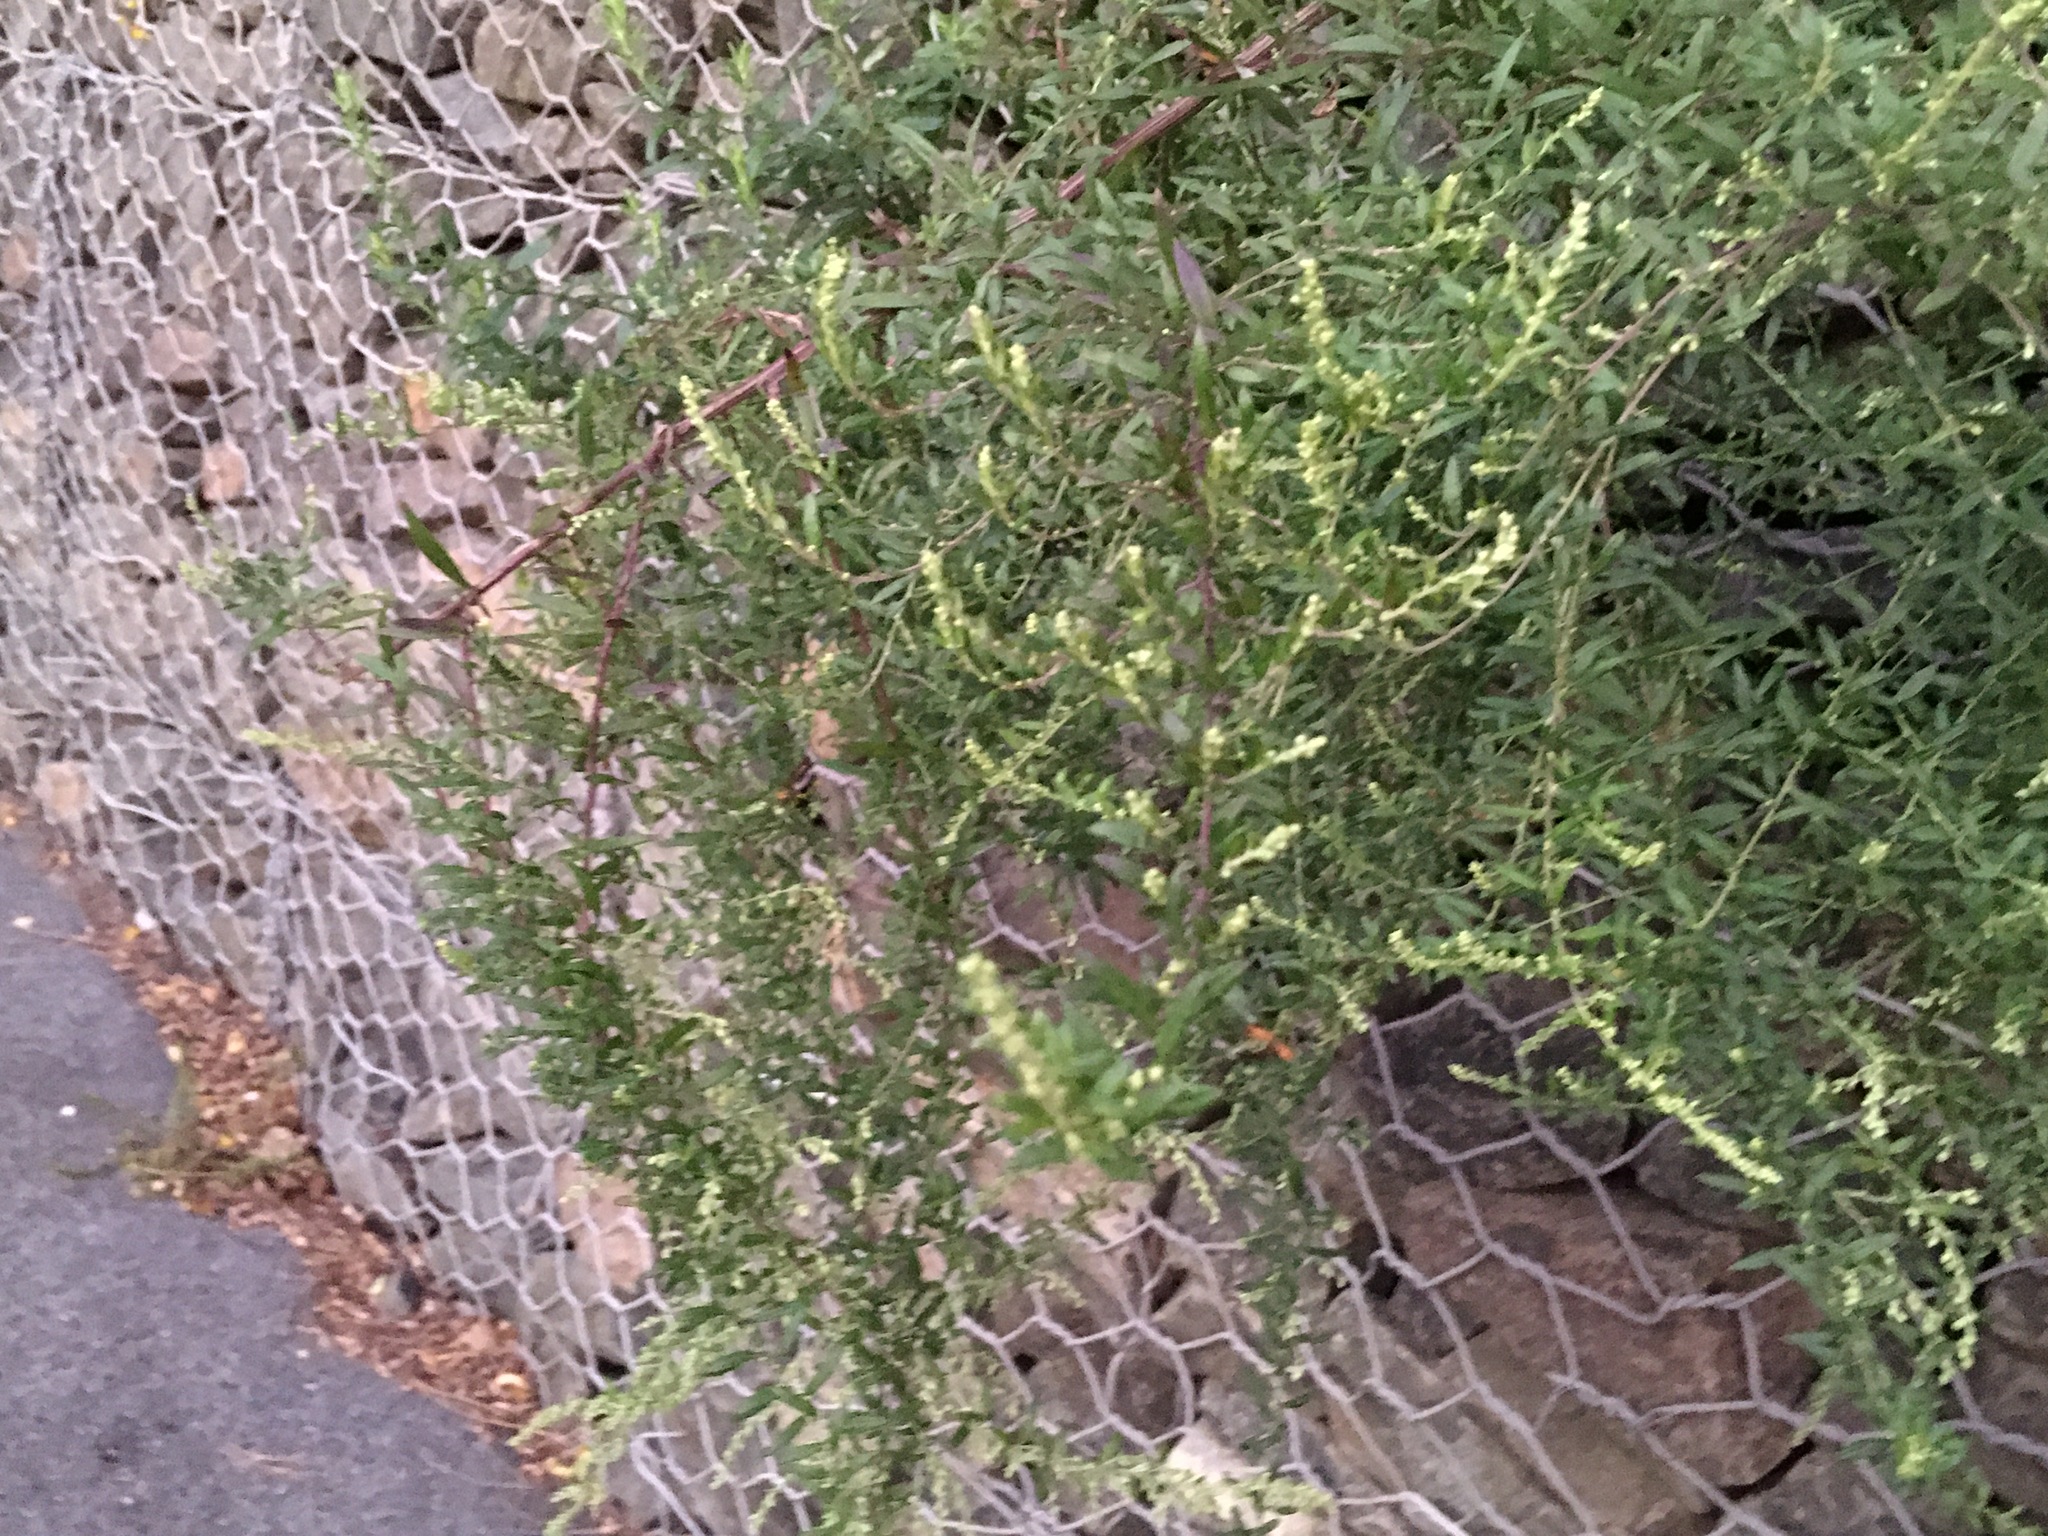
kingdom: Plantae
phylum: Tracheophyta
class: Magnoliopsida
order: Asterales
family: Asteraceae
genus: Artemisia
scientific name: Artemisia vulgaris
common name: Mugwort
